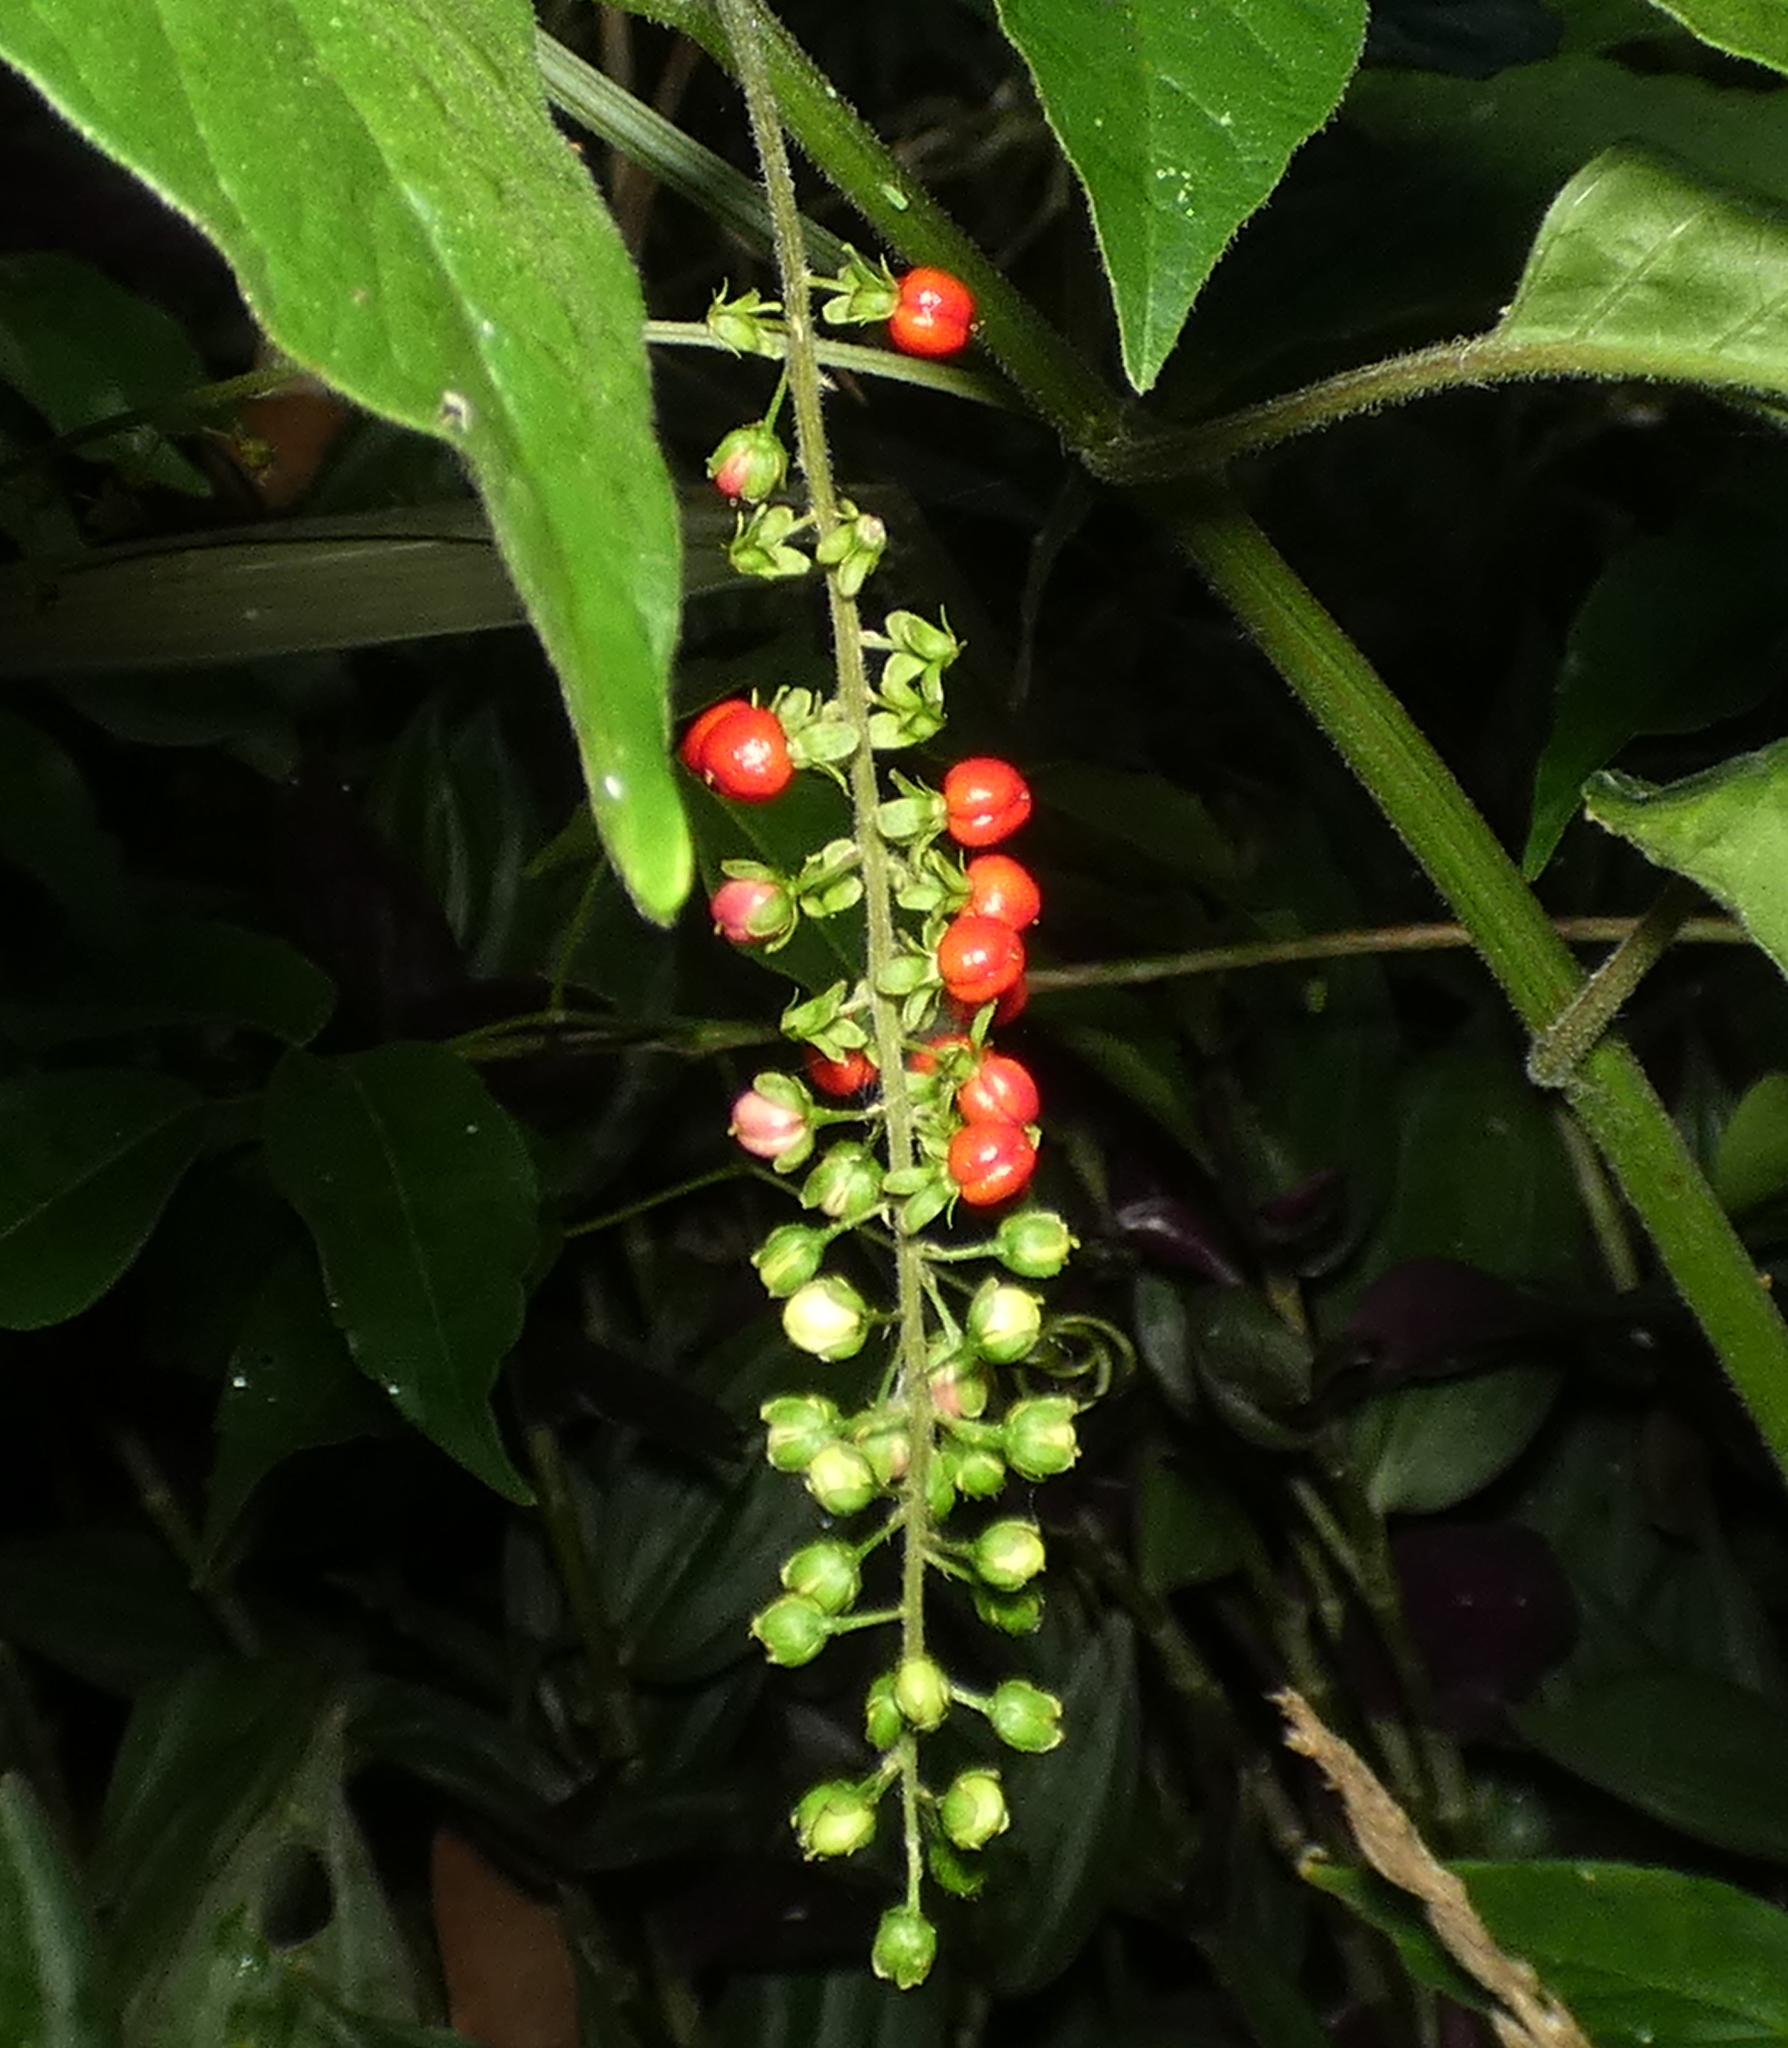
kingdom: Plantae
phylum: Tracheophyta
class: Magnoliopsida
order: Caryophyllales
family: Phytolaccaceae
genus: Rivina
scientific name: Rivina humilis
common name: Rougeplant
